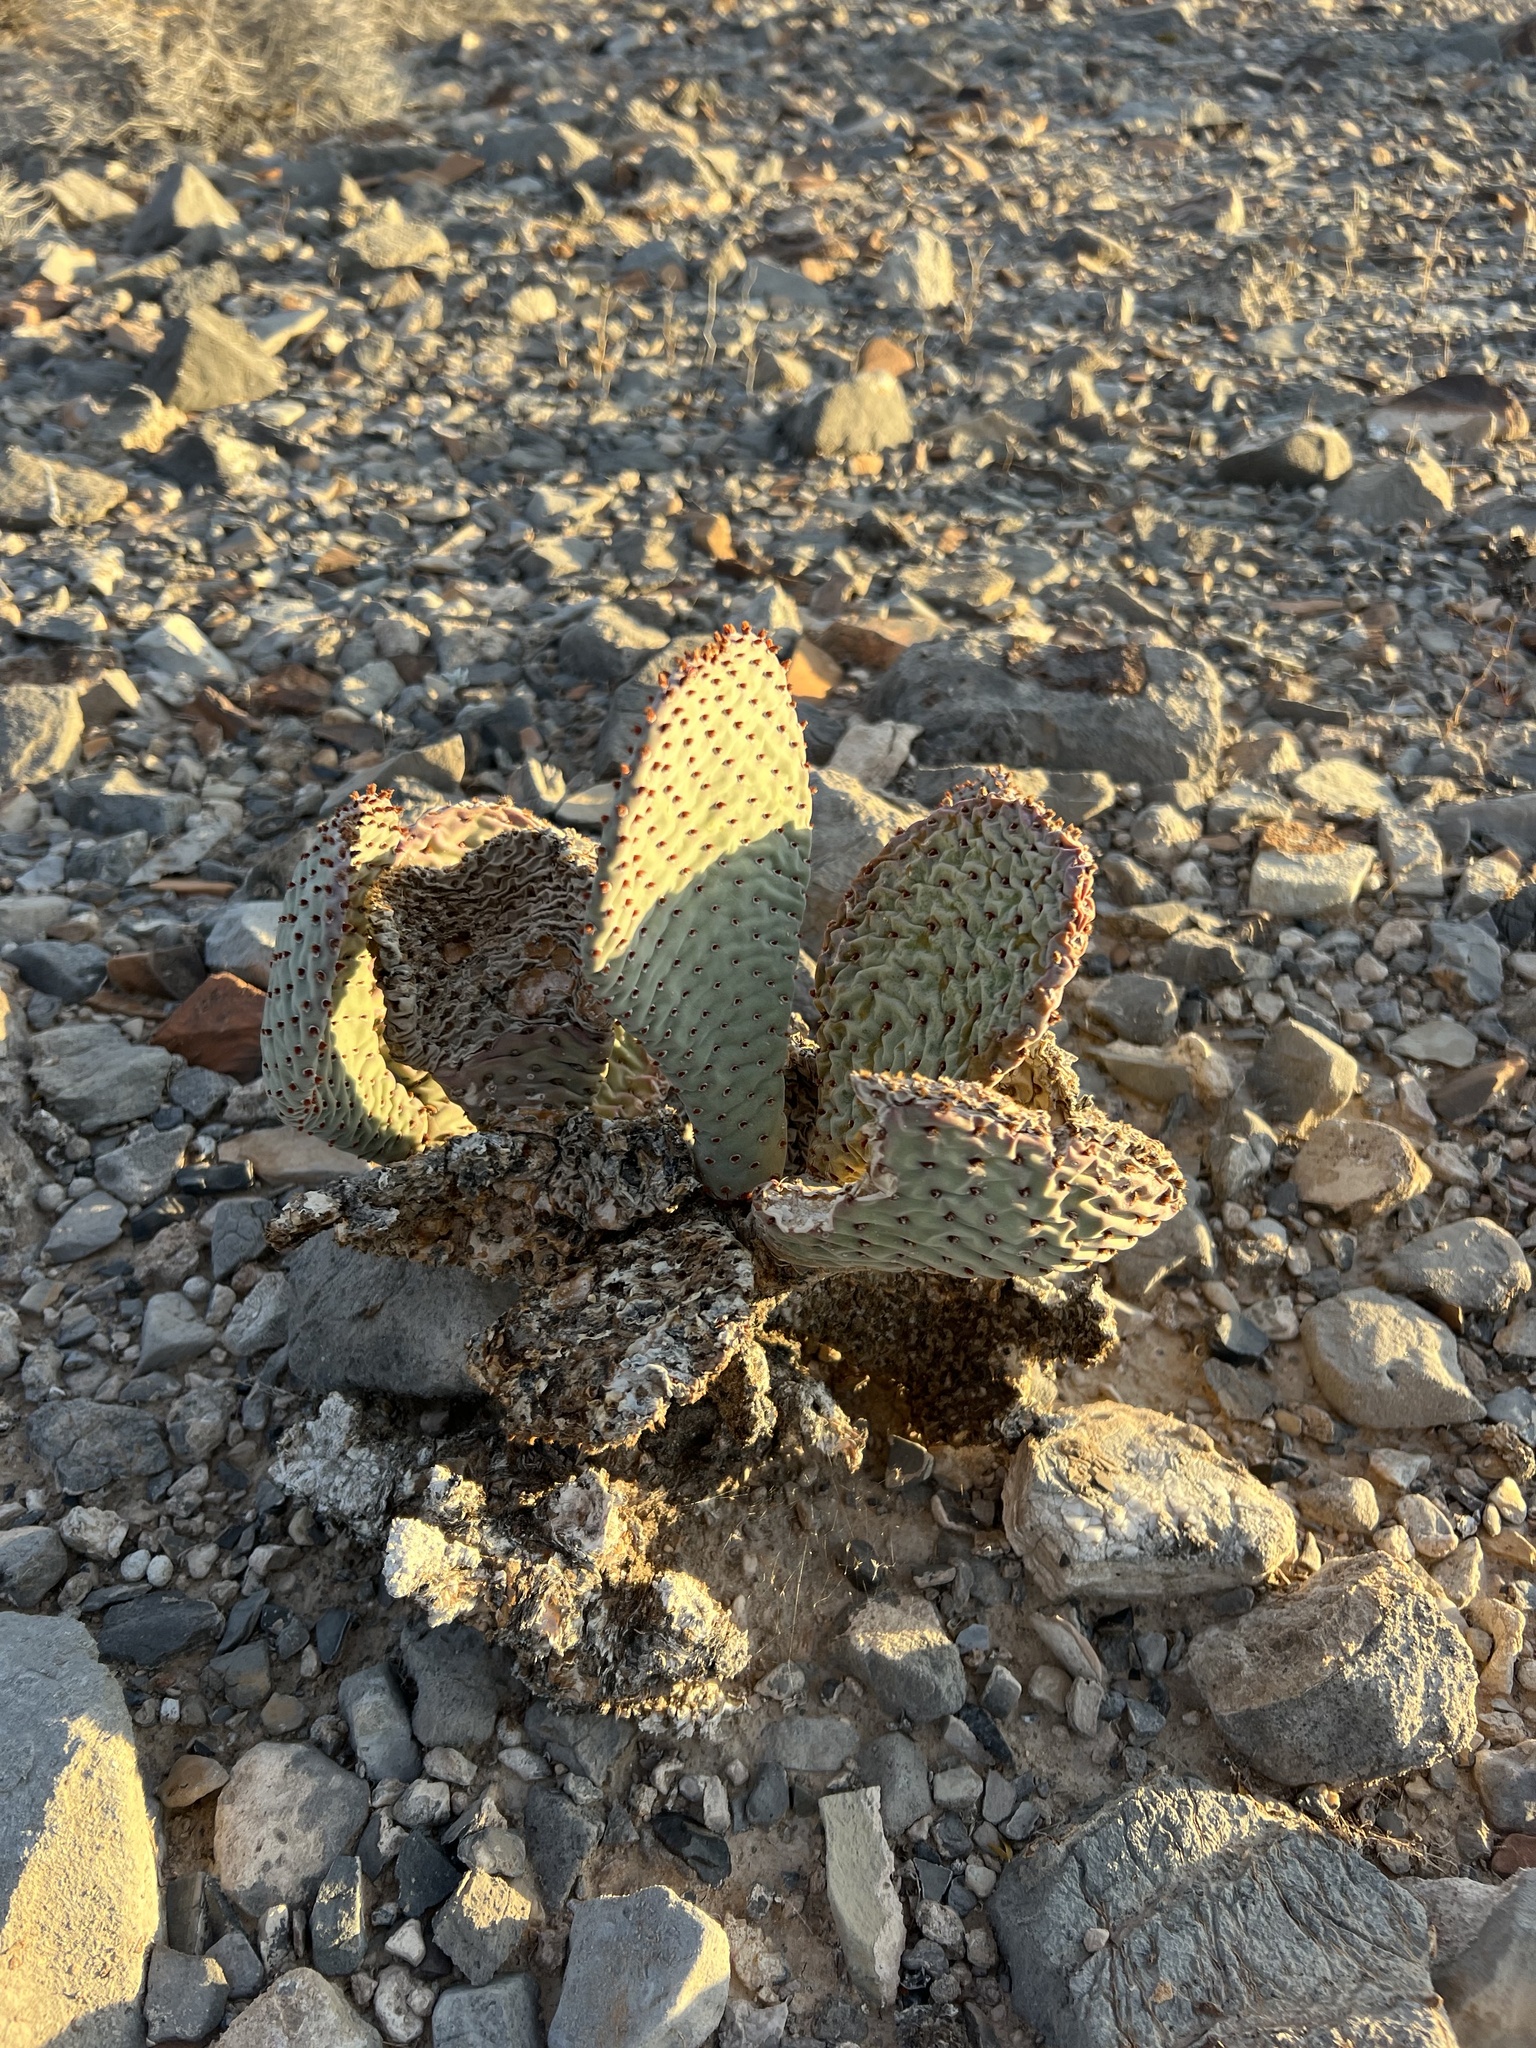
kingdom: Plantae
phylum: Tracheophyta
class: Magnoliopsida
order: Caryophyllales
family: Cactaceae
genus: Opuntia
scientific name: Opuntia basilaris
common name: Beavertail prickly-pear
